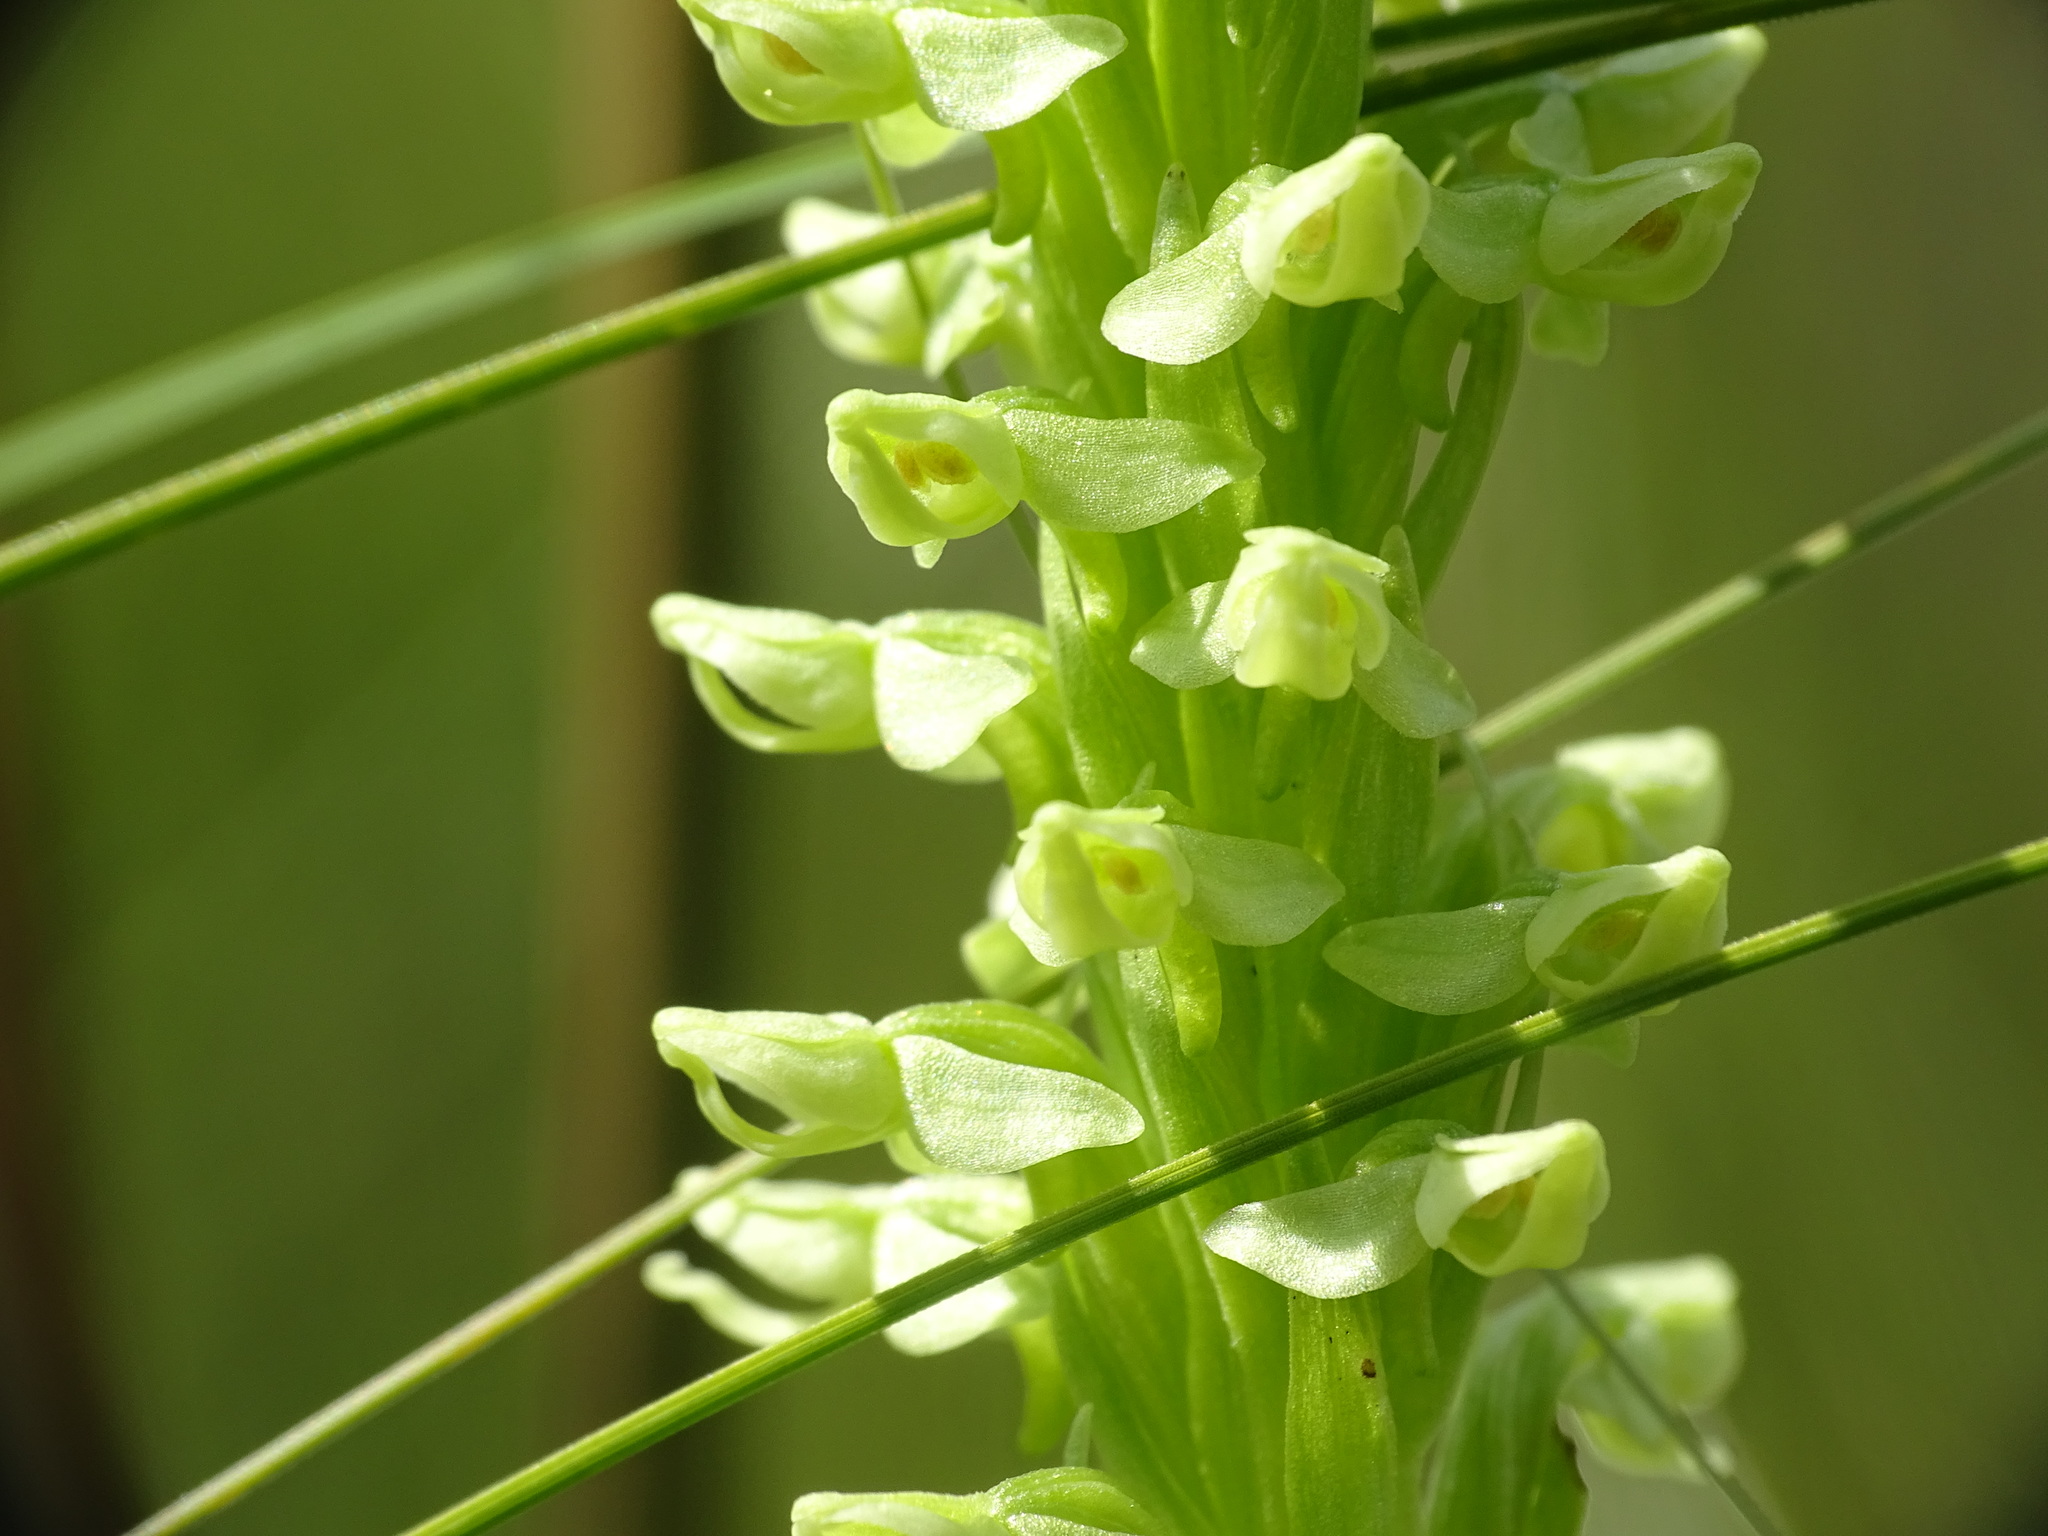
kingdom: Plantae
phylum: Tracheophyta
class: Liliopsida
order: Asparagales
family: Orchidaceae
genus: Platanthera
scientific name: Platanthera huronensis
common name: Fragrant green orchid
